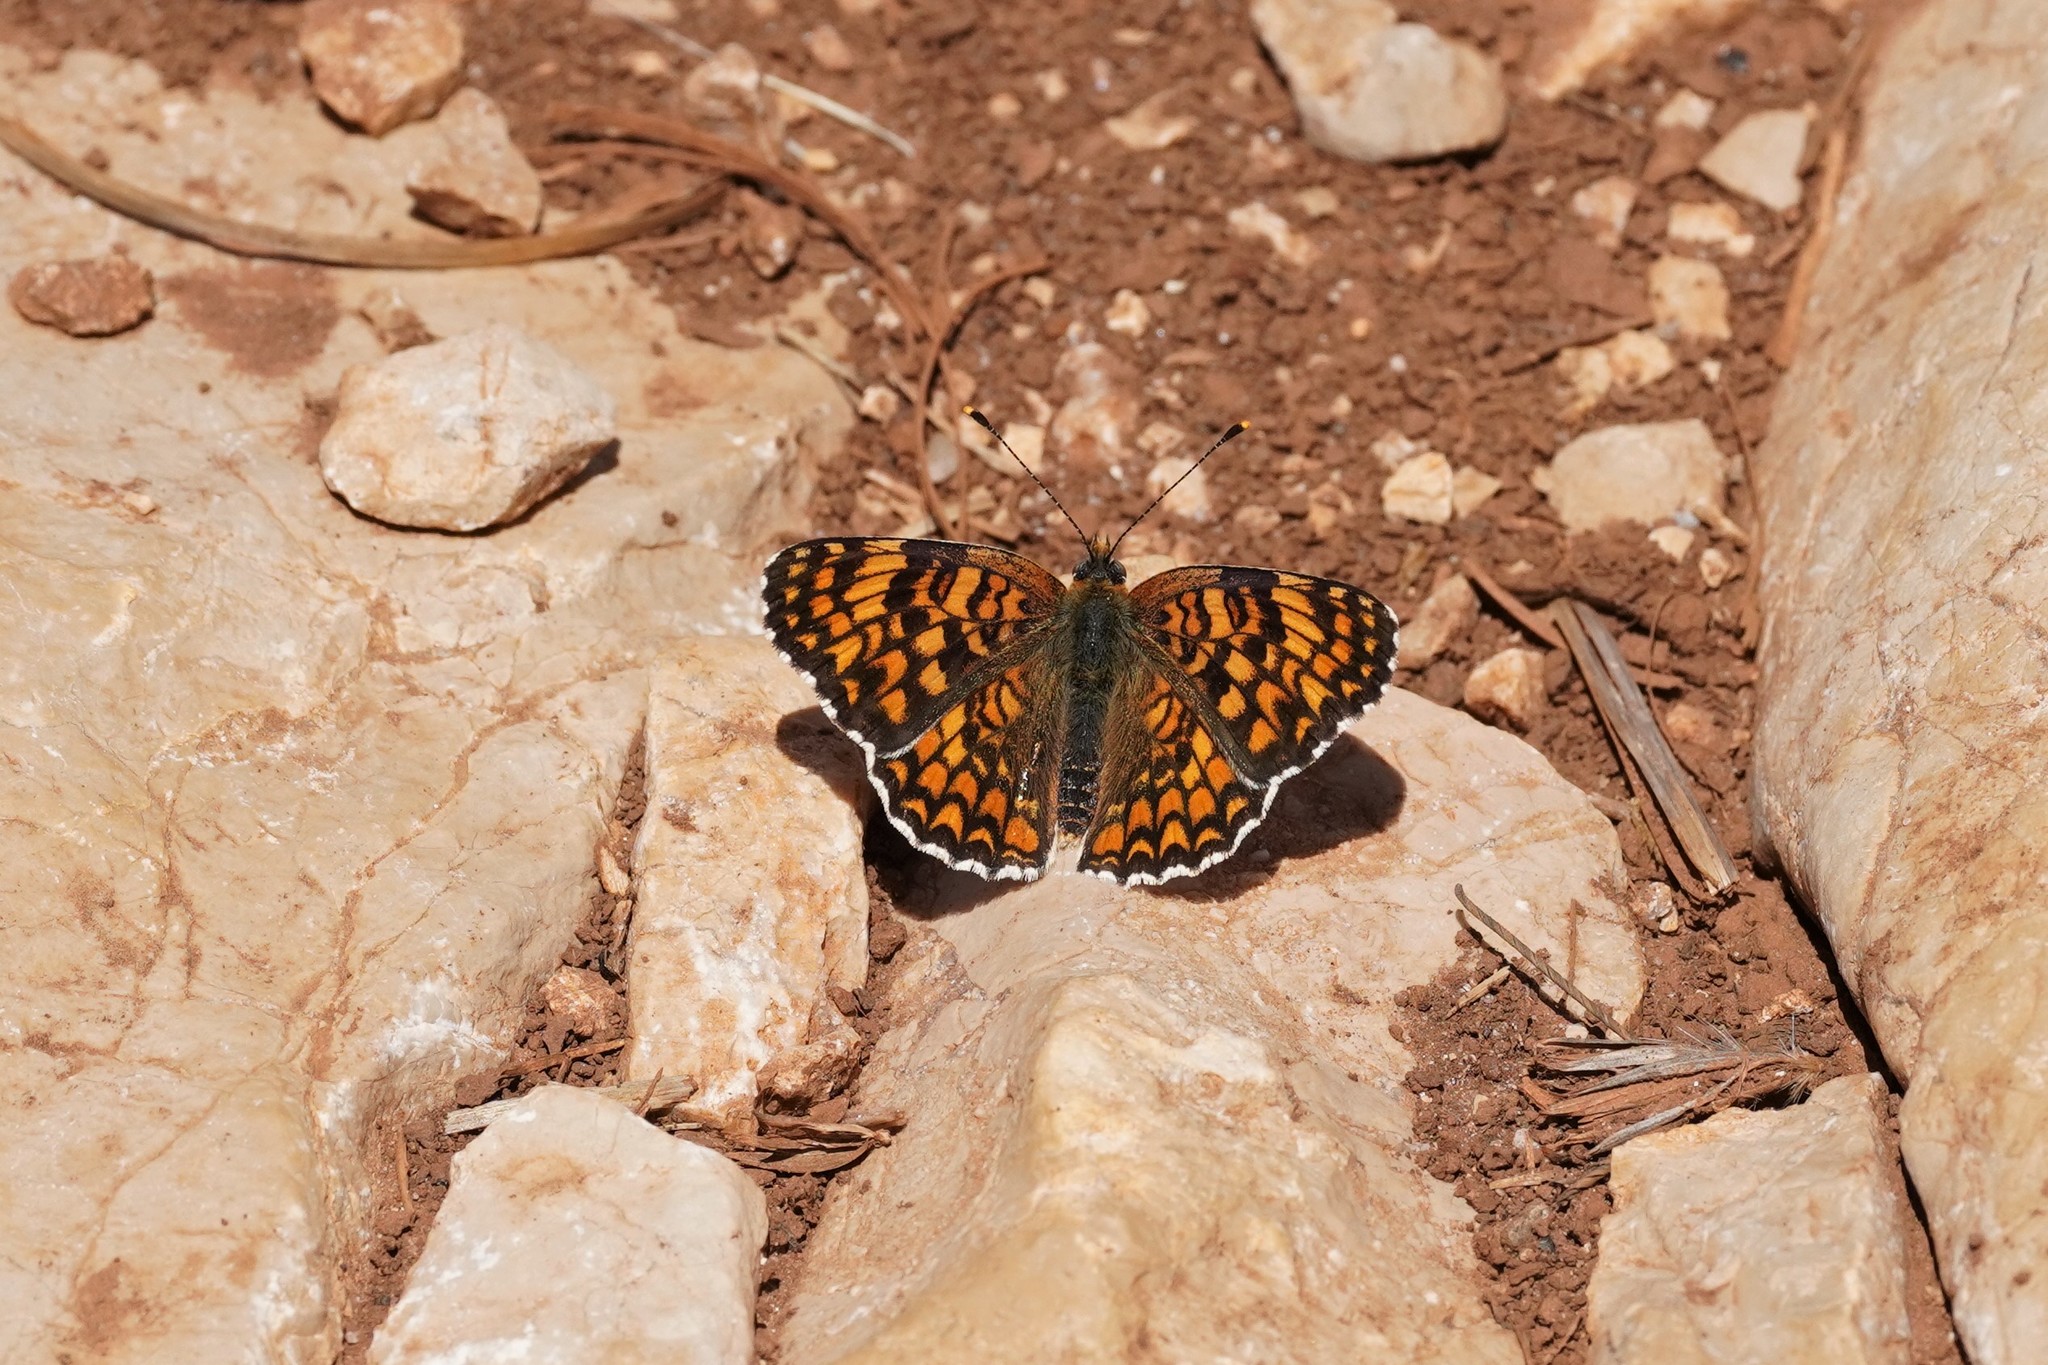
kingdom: Animalia
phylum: Arthropoda
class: Insecta
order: Lepidoptera
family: Nymphalidae
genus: Melitaea
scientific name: Melitaea phoebe
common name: Knapweed fritillary
